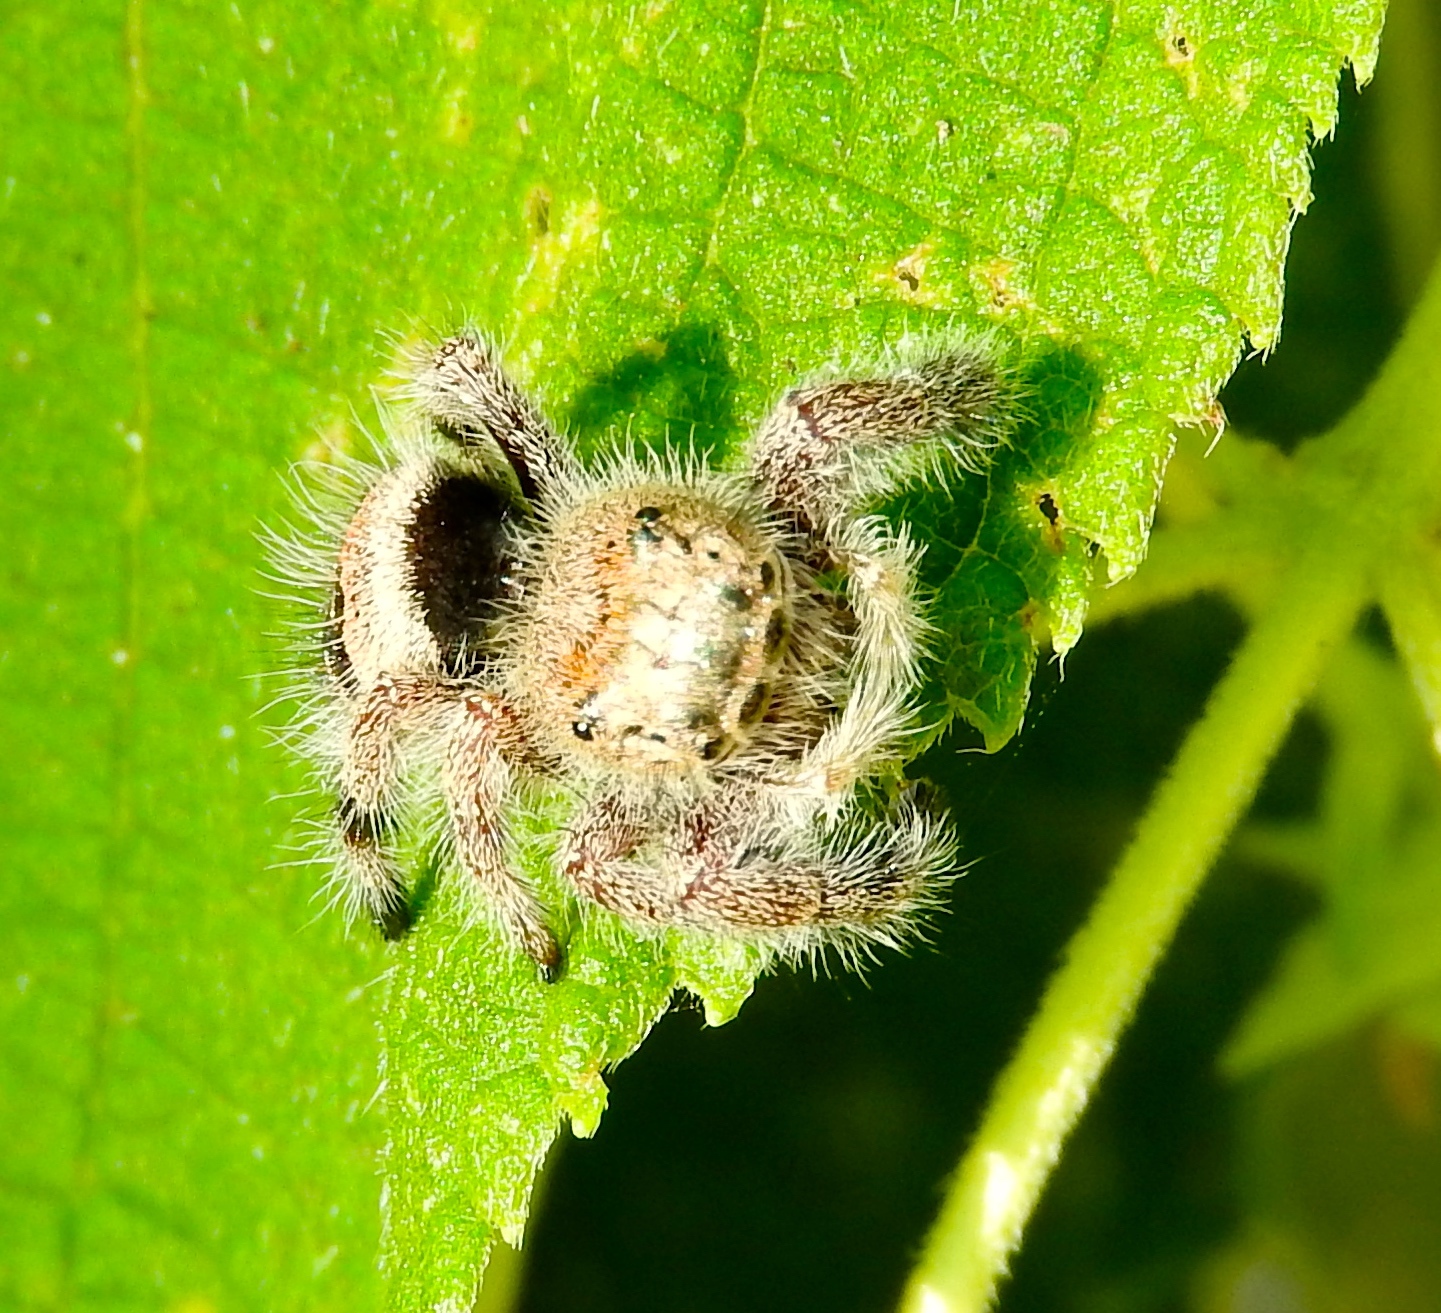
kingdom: Animalia
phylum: Arthropoda
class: Arachnida
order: Araneae
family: Salticidae
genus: Phidippus
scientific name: Phidippus maddisoni
